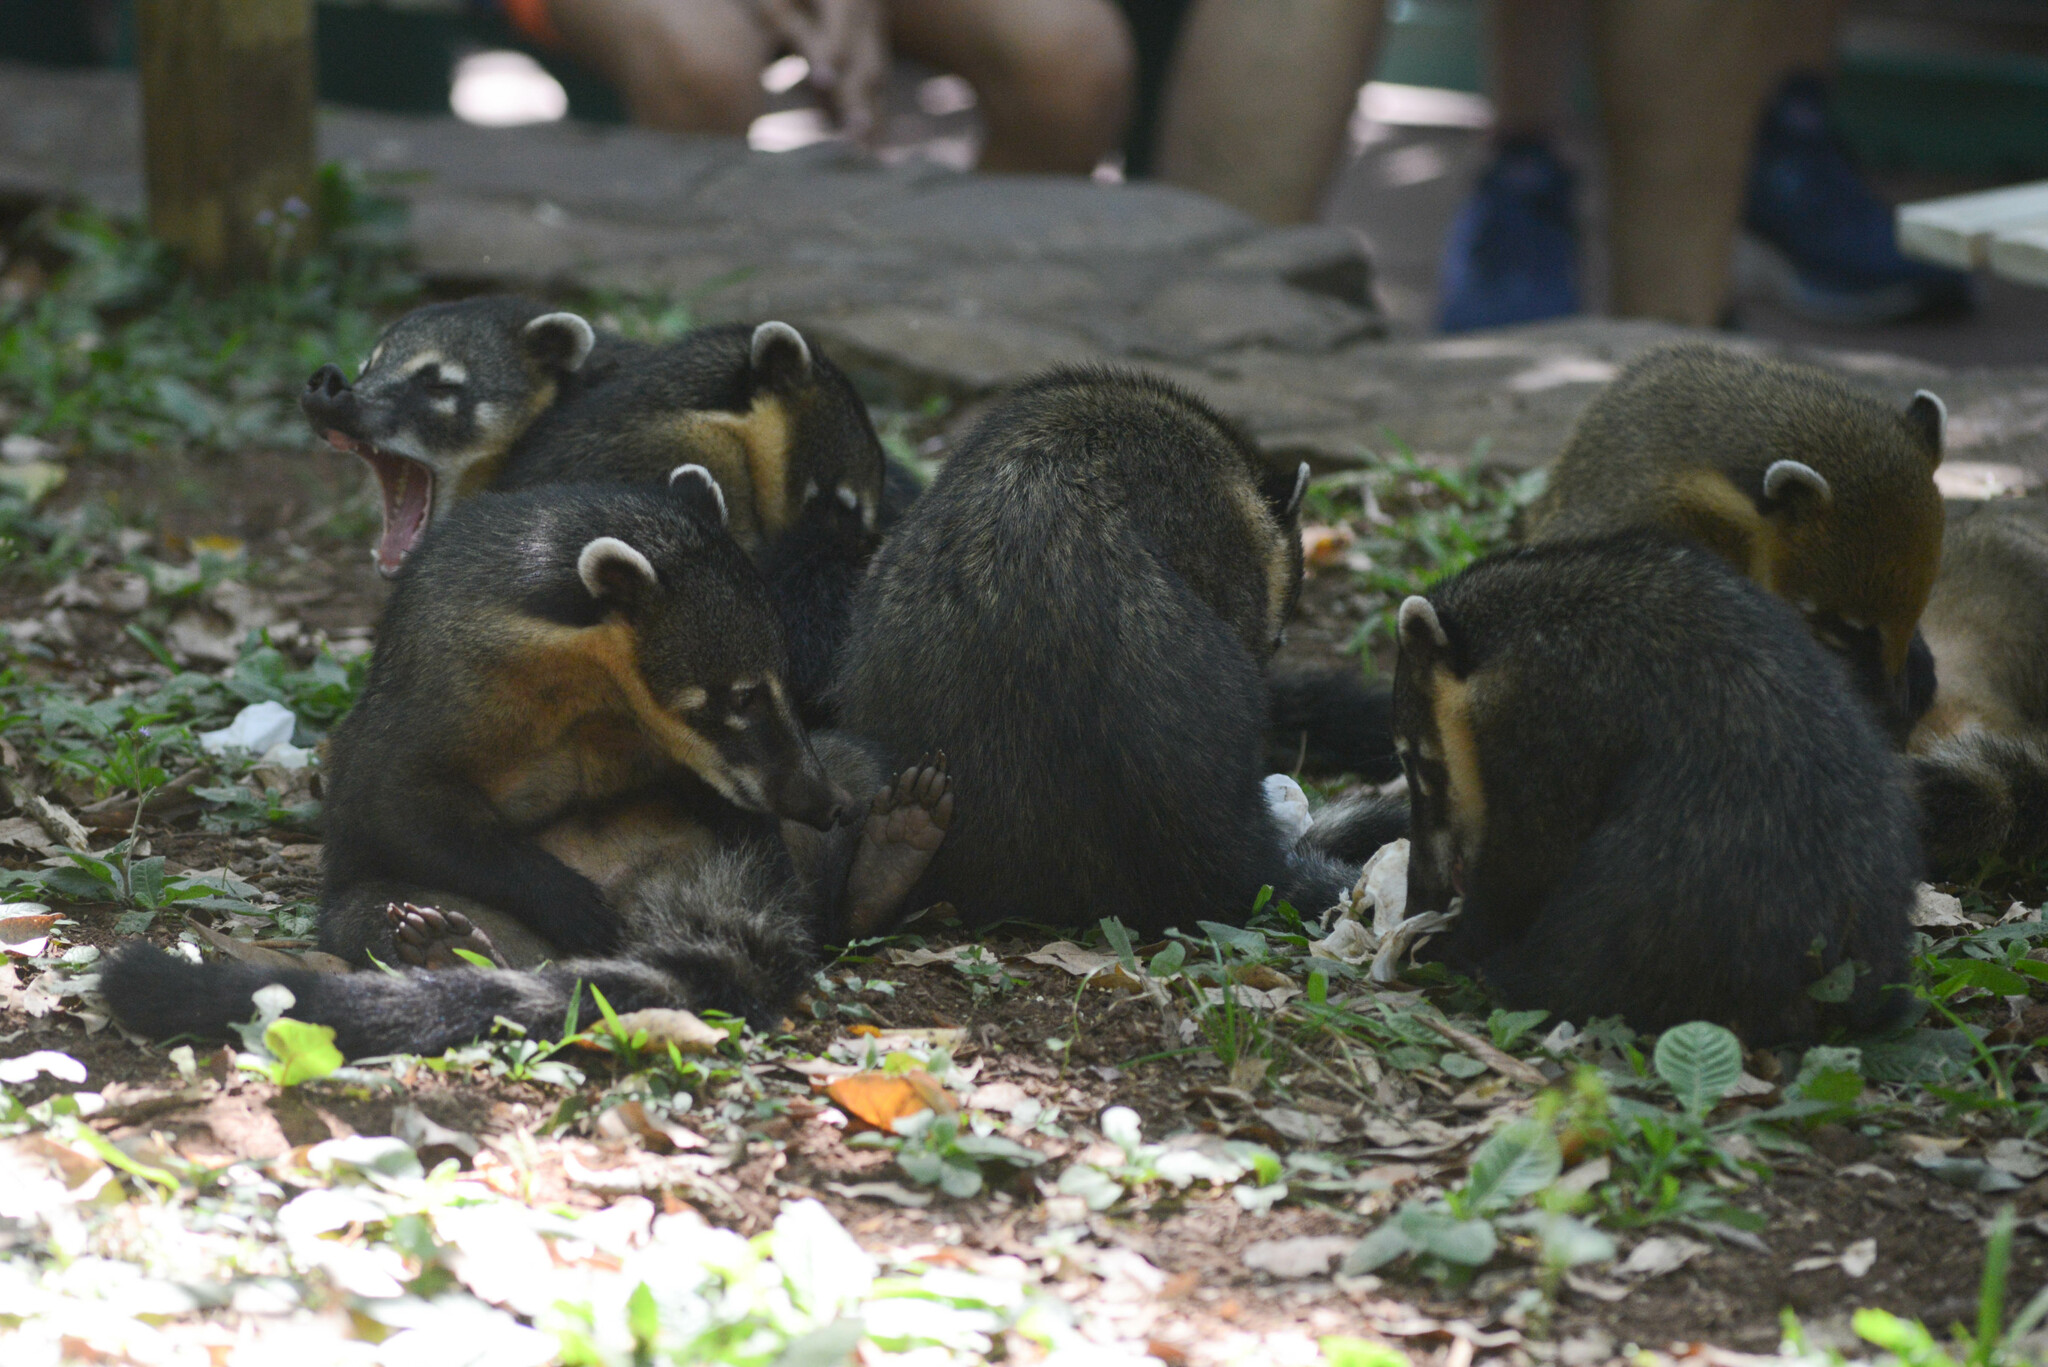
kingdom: Animalia
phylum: Chordata
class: Mammalia
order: Carnivora
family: Procyonidae
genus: Nasua
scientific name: Nasua nasua
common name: South american coati
